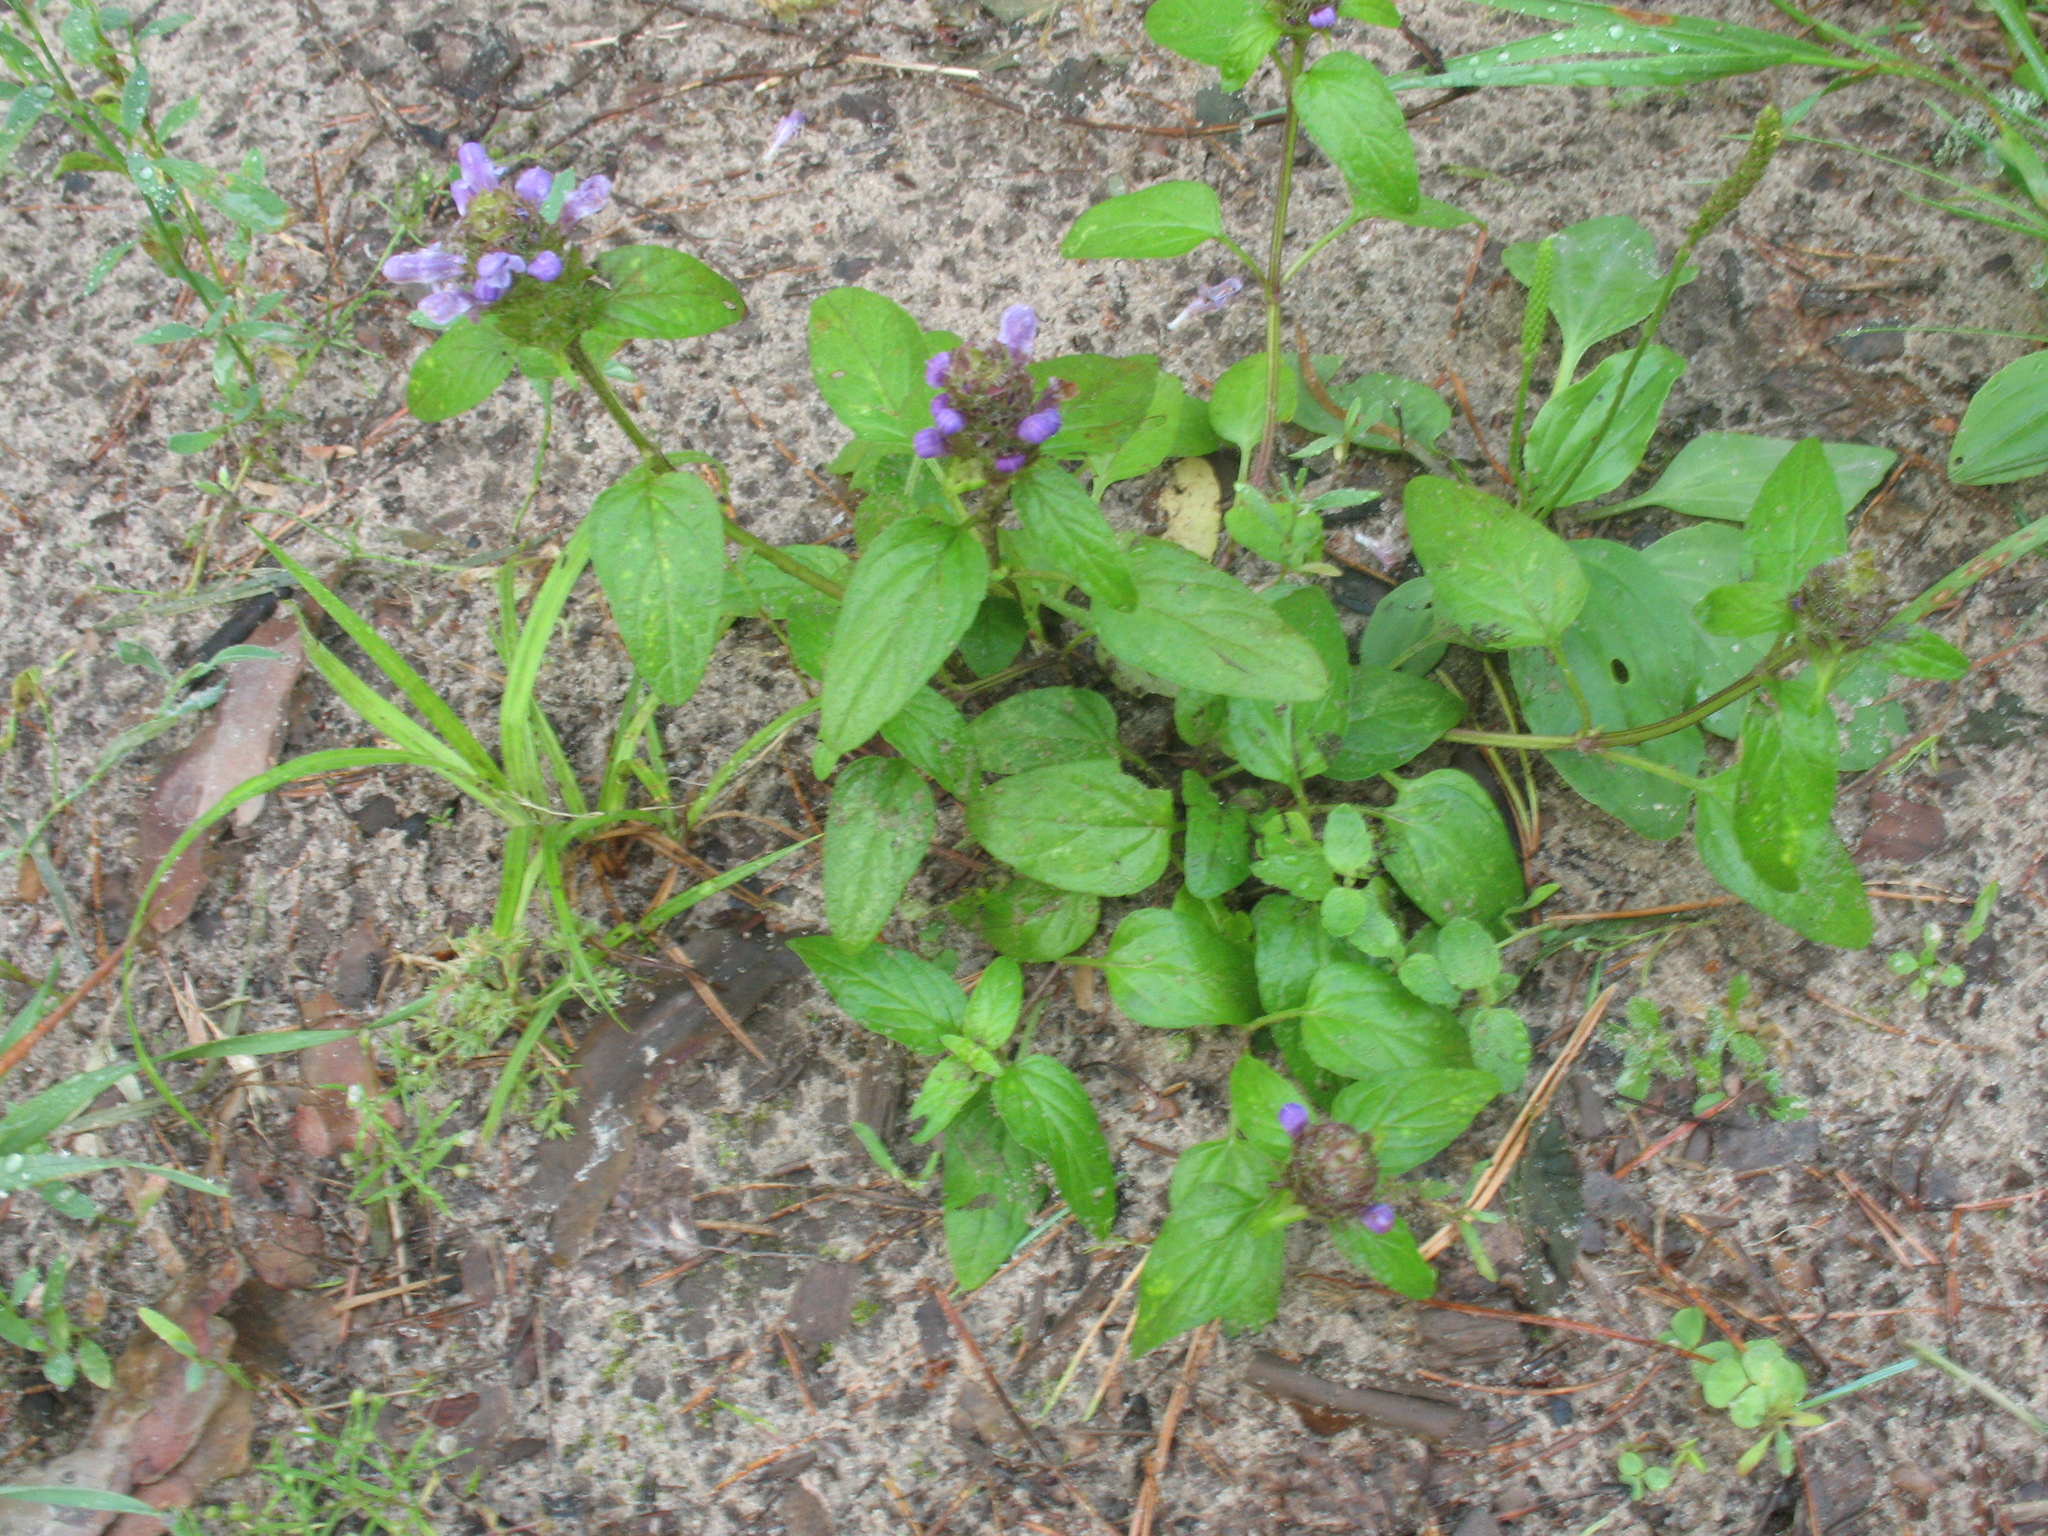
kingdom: Plantae
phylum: Tracheophyta
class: Magnoliopsida
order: Lamiales
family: Lamiaceae
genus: Prunella
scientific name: Prunella vulgaris
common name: Heal-all
